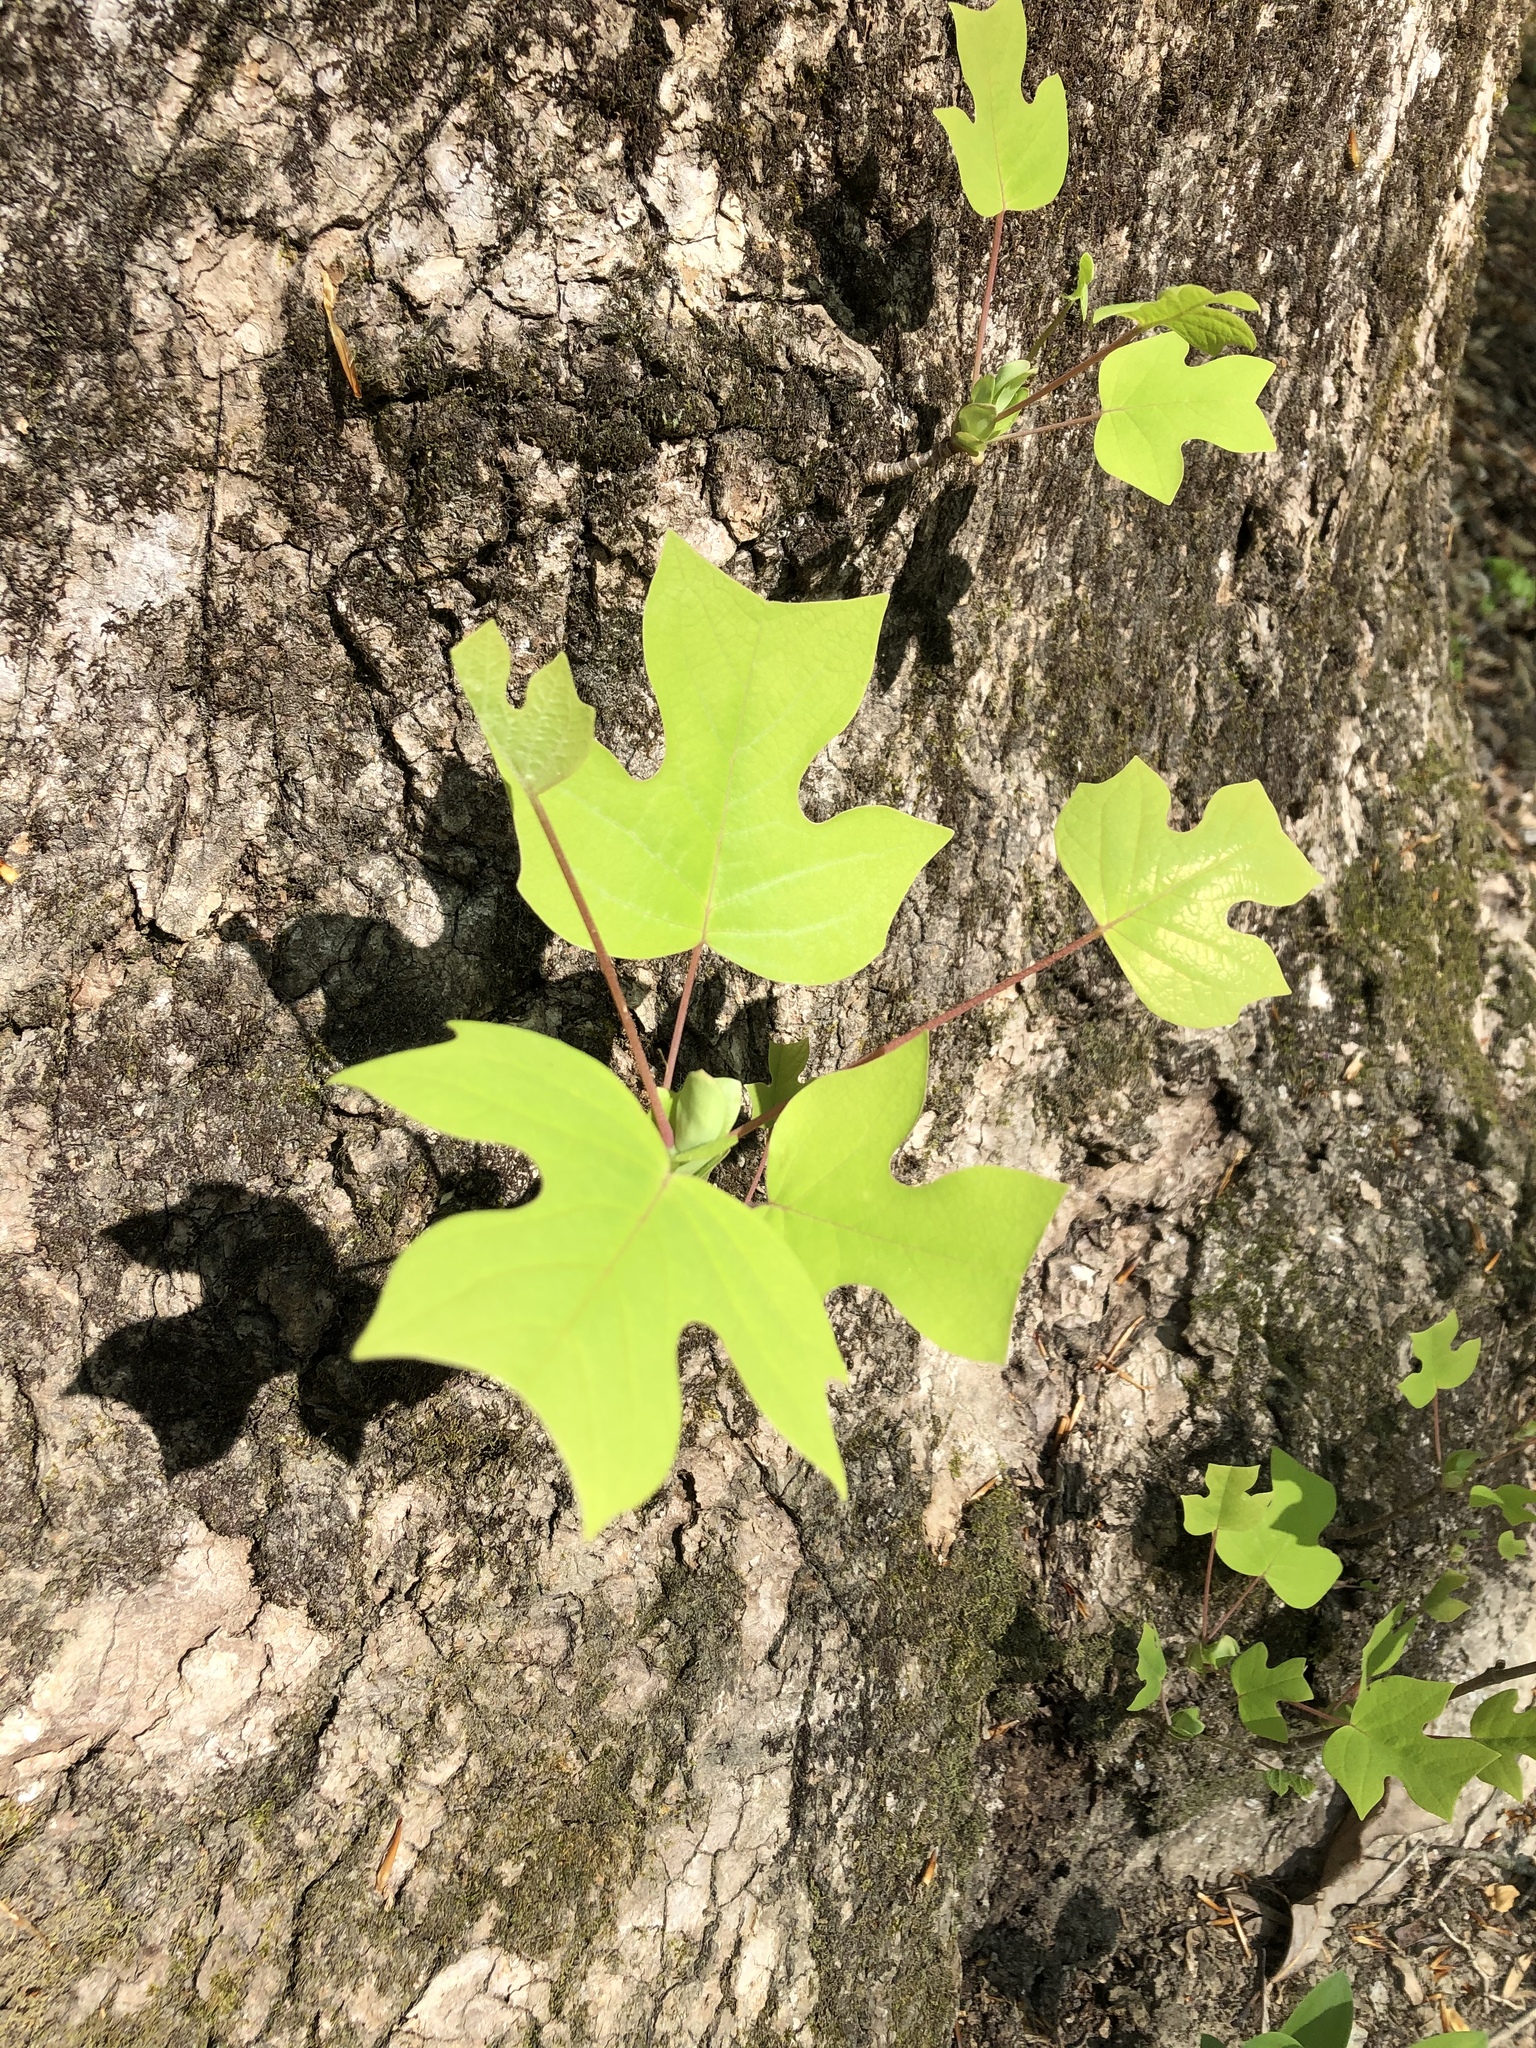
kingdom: Plantae
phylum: Tracheophyta
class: Magnoliopsida
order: Magnoliales
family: Magnoliaceae
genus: Liriodendron
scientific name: Liriodendron tulipifera
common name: Tulip tree
